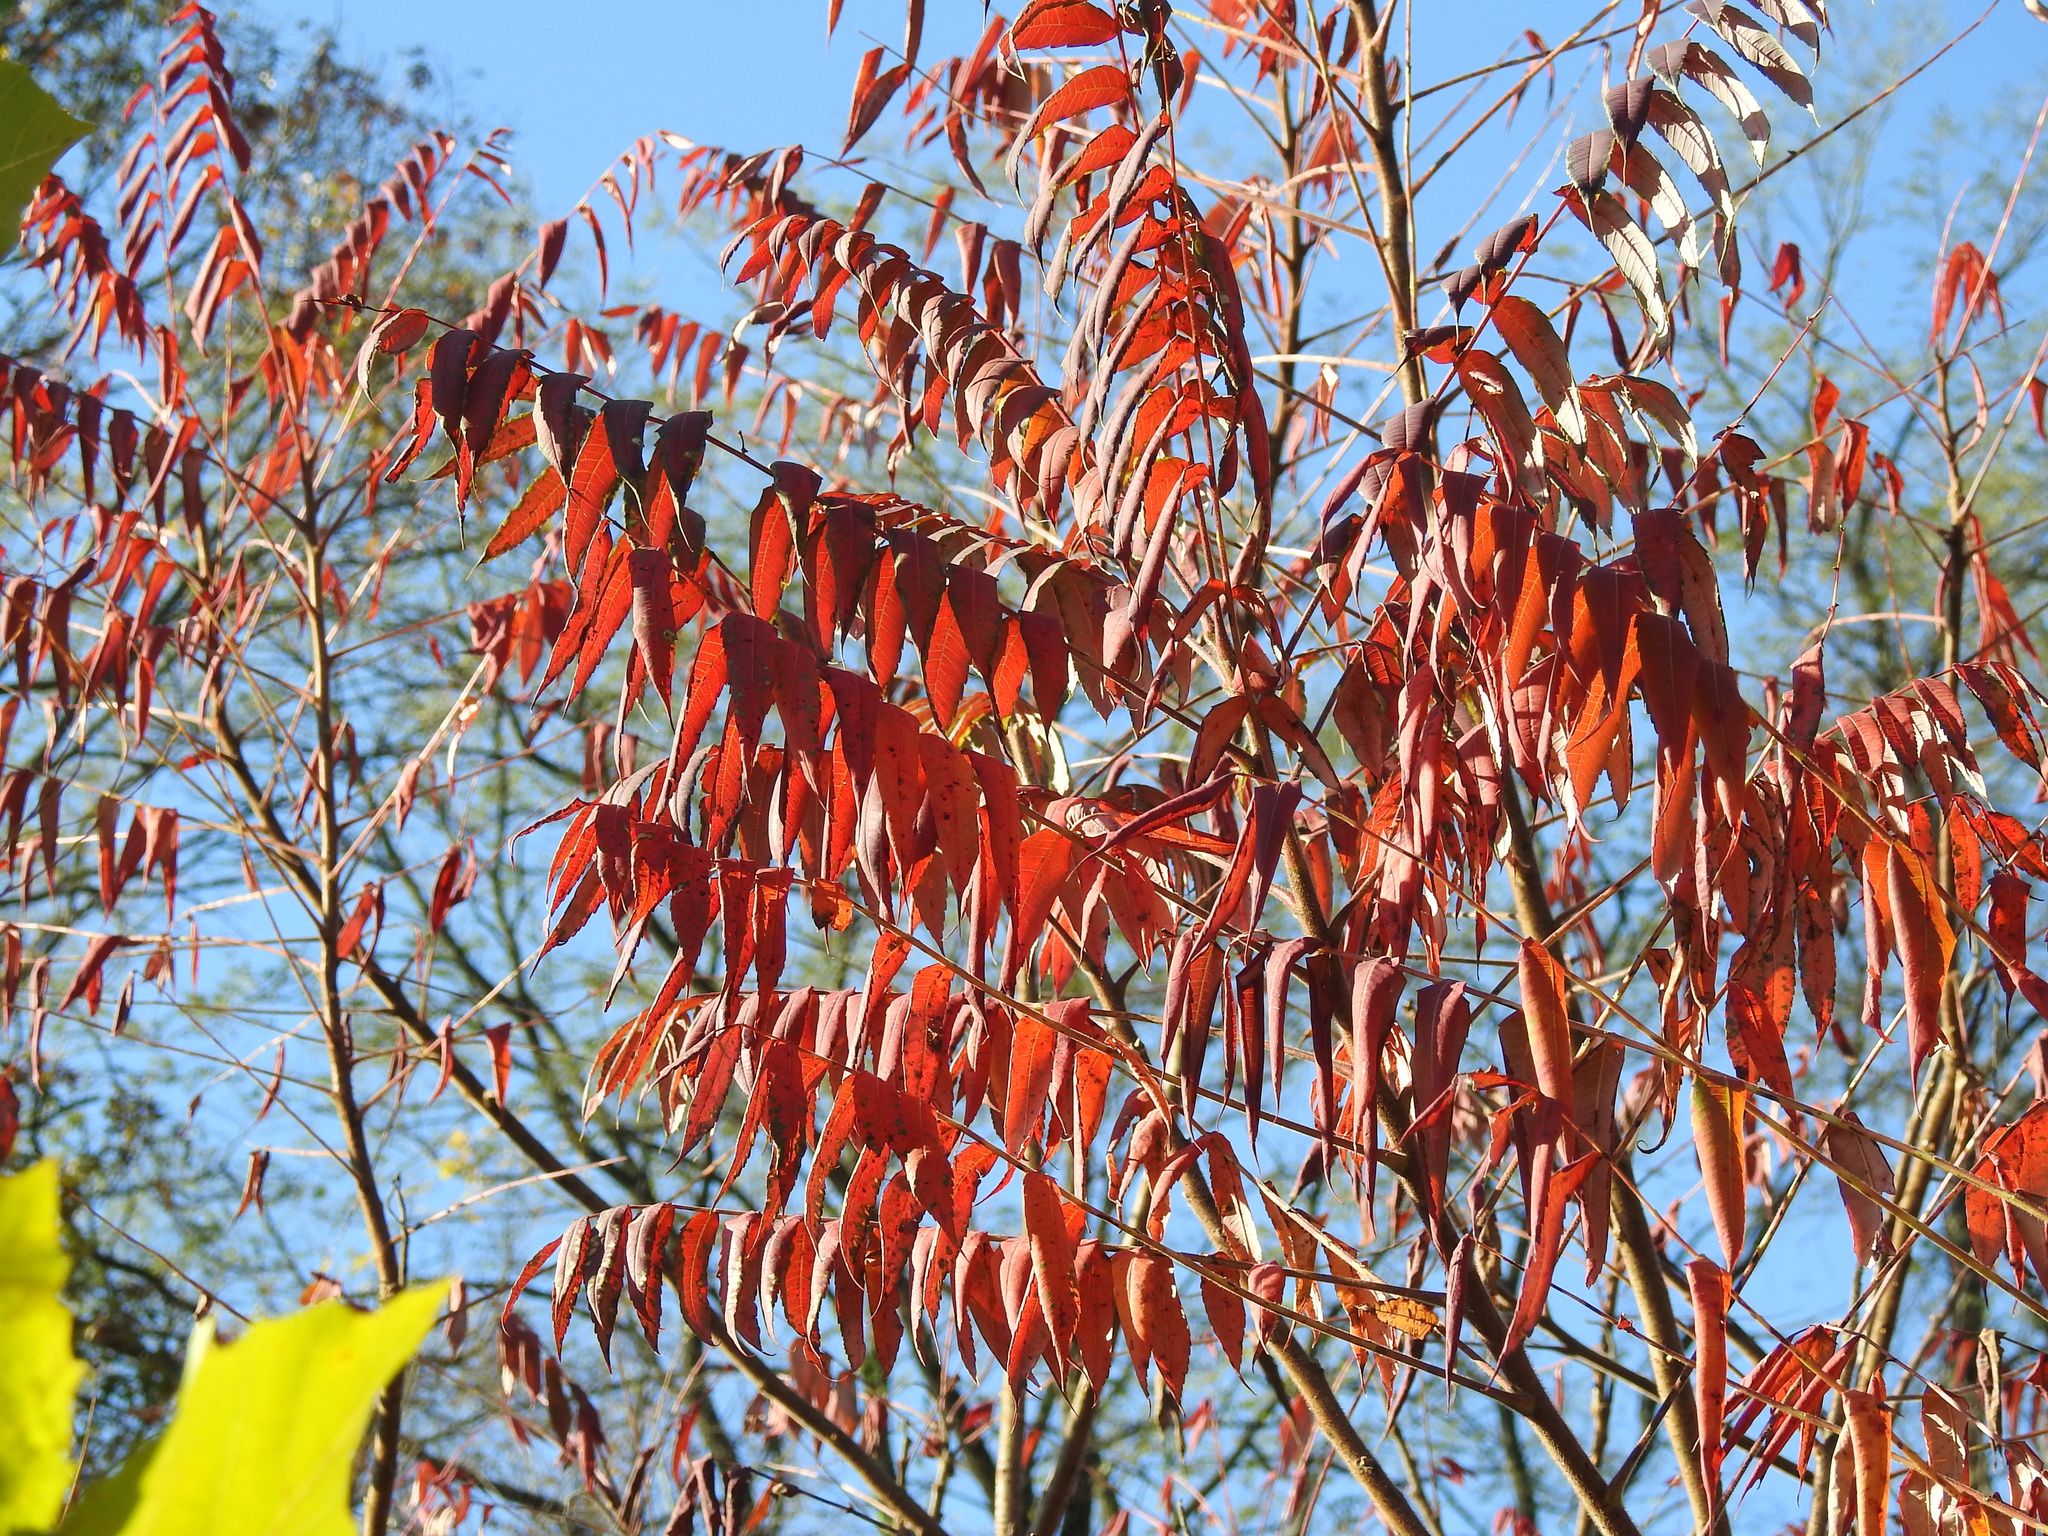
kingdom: Plantae
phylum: Tracheophyta
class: Magnoliopsida
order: Sapindales
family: Anacardiaceae
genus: Rhus
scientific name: Rhus typhina
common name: Staghorn sumac
